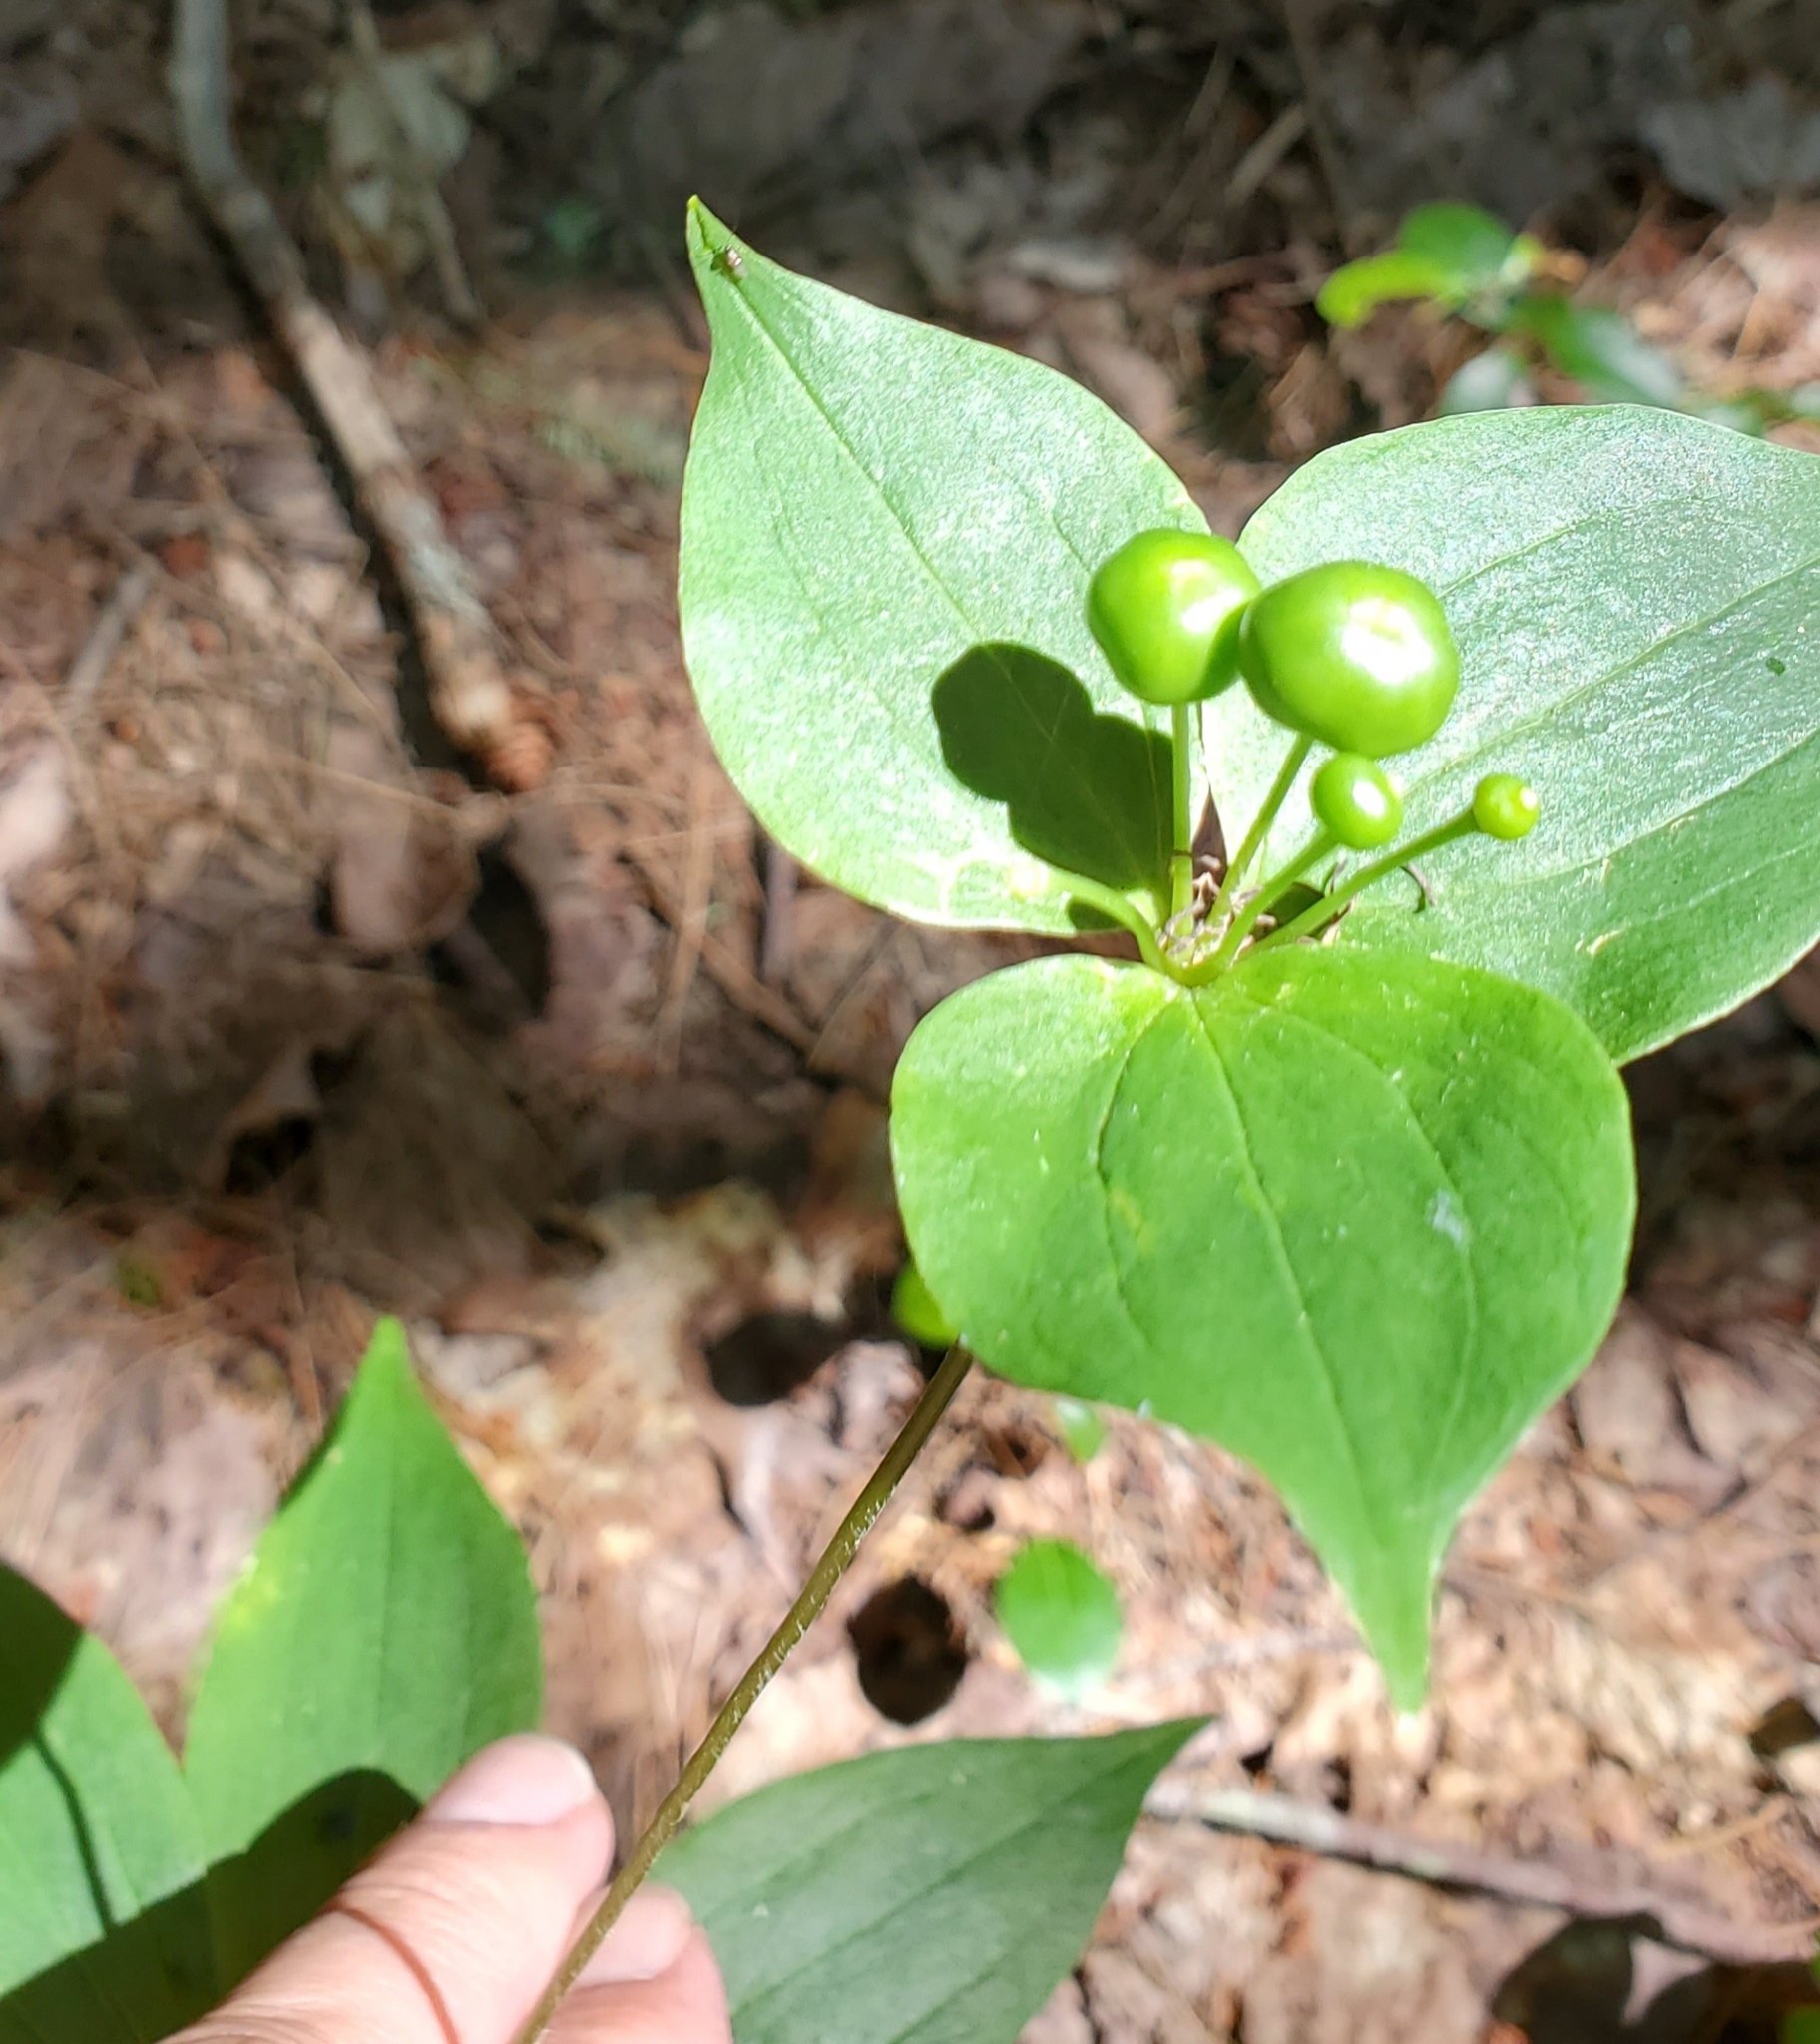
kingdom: Plantae
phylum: Tracheophyta
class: Liliopsida
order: Liliales
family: Liliaceae
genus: Medeola
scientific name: Medeola virginiana
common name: Indian cucumber-root
